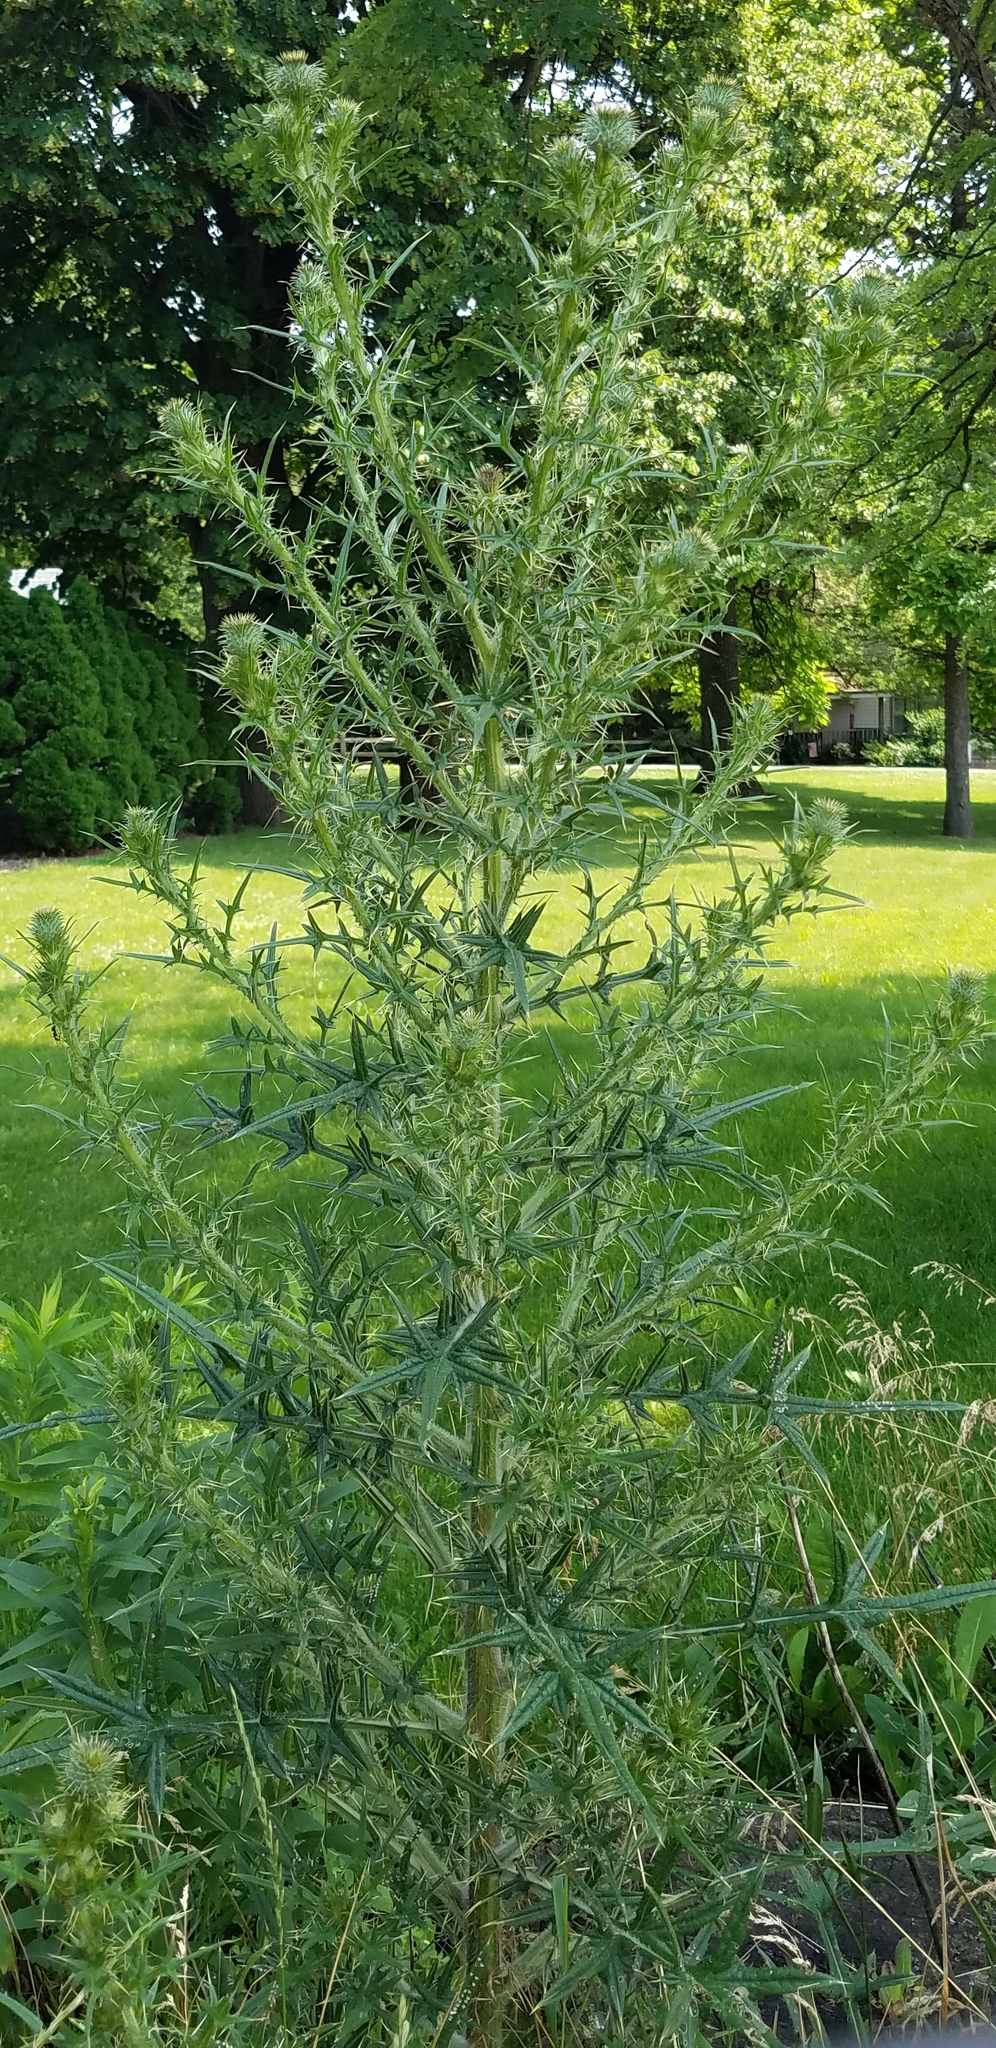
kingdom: Plantae
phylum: Tracheophyta
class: Magnoliopsida
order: Asterales
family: Asteraceae
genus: Cirsium
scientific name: Cirsium vulgare
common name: Bull thistle
